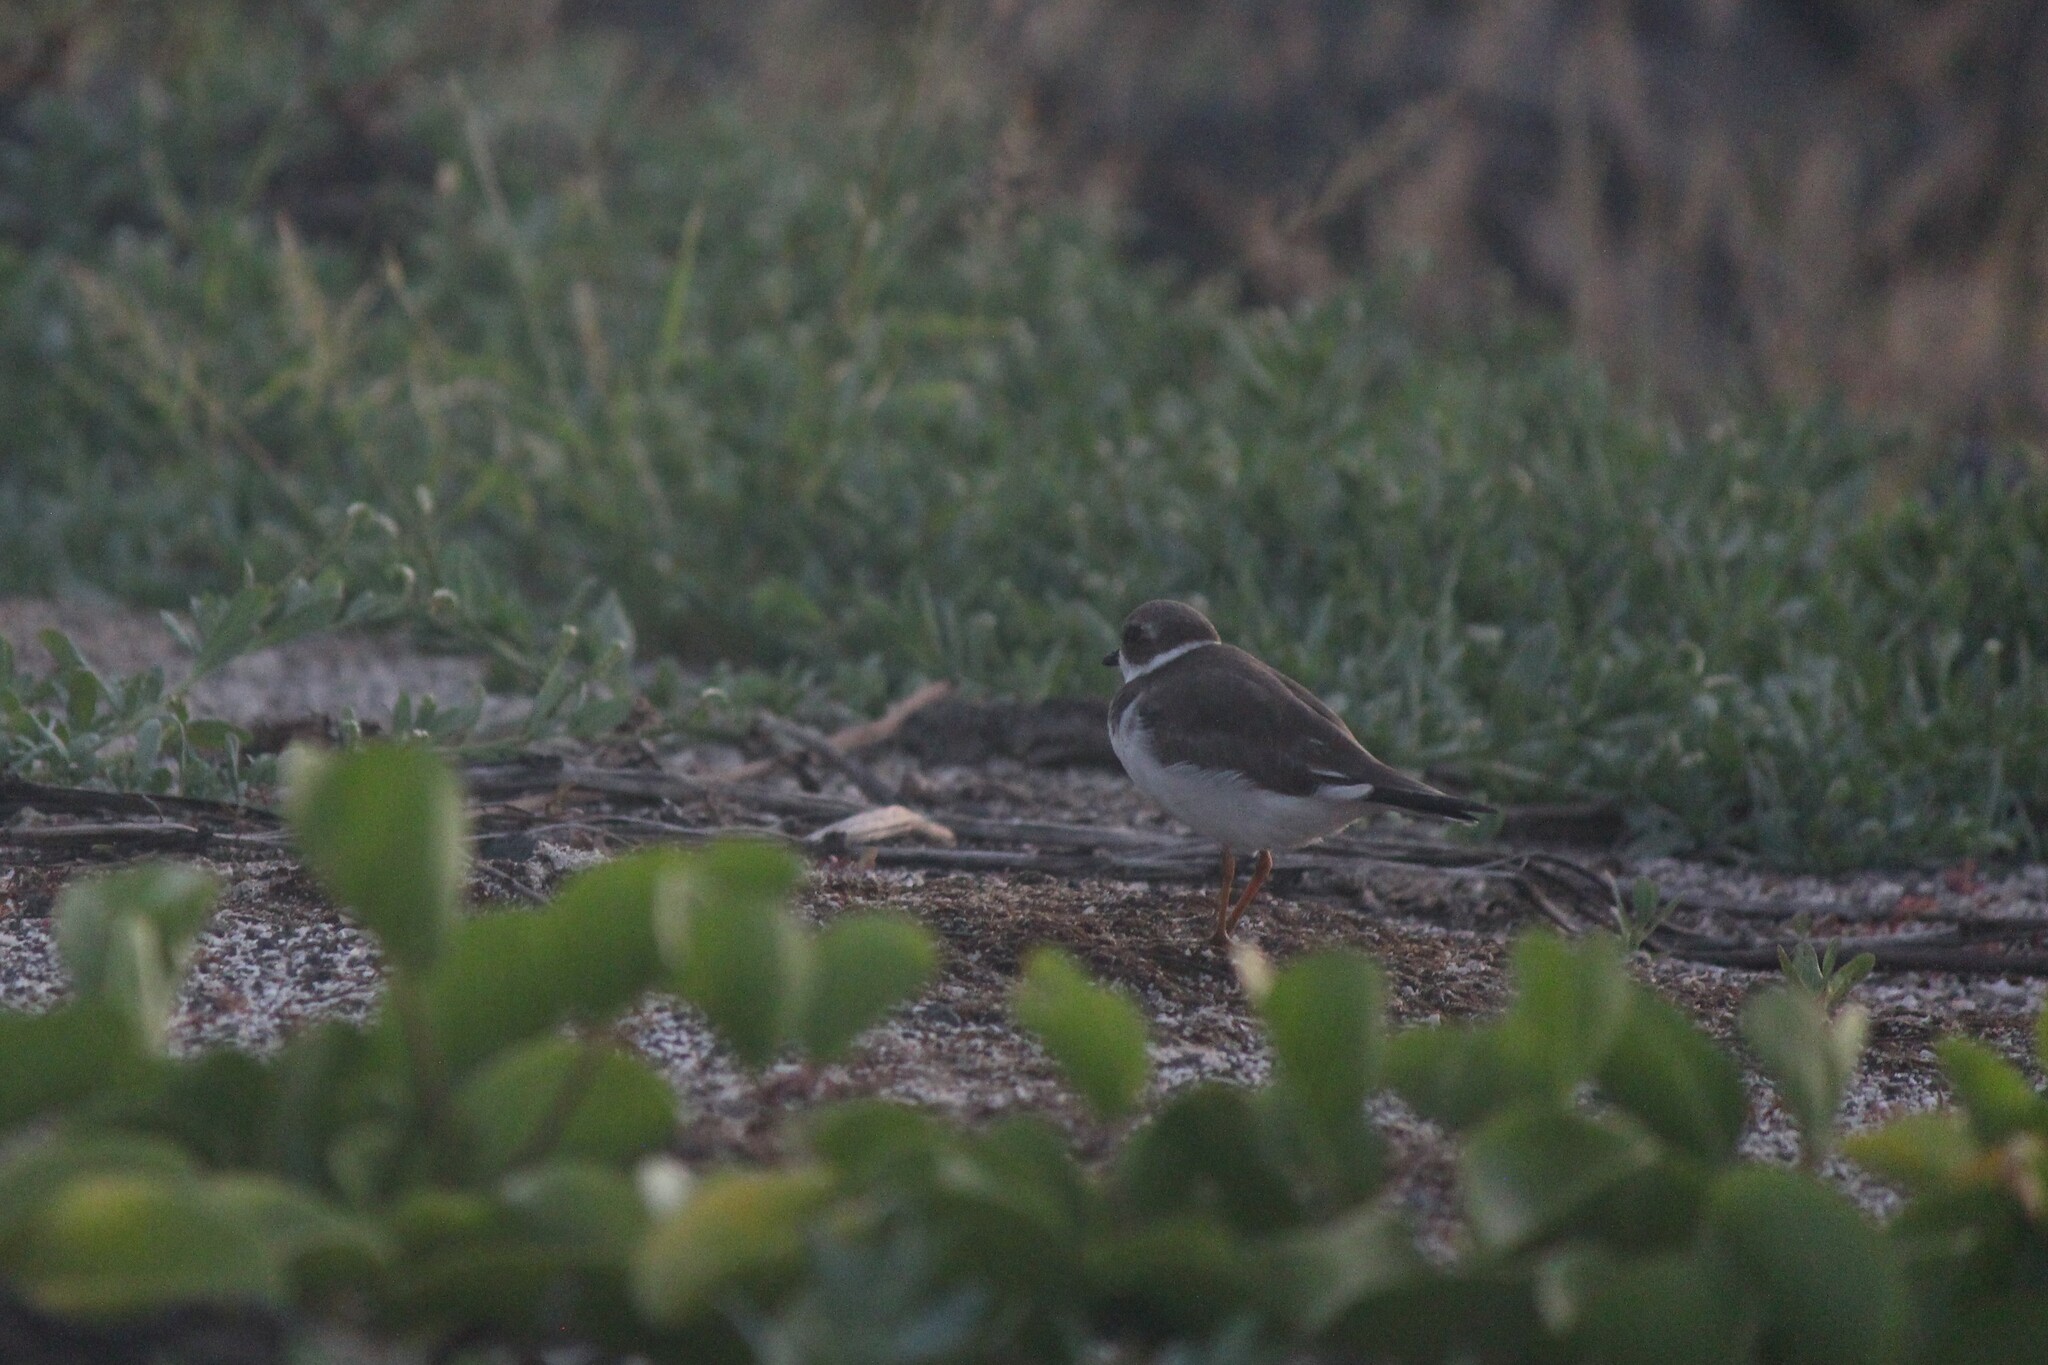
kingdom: Animalia
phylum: Chordata
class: Aves
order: Charadriiformes
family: Charadriidae
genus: Charadrius
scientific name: Charadrius semipalmatus
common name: Semipalmated plover
